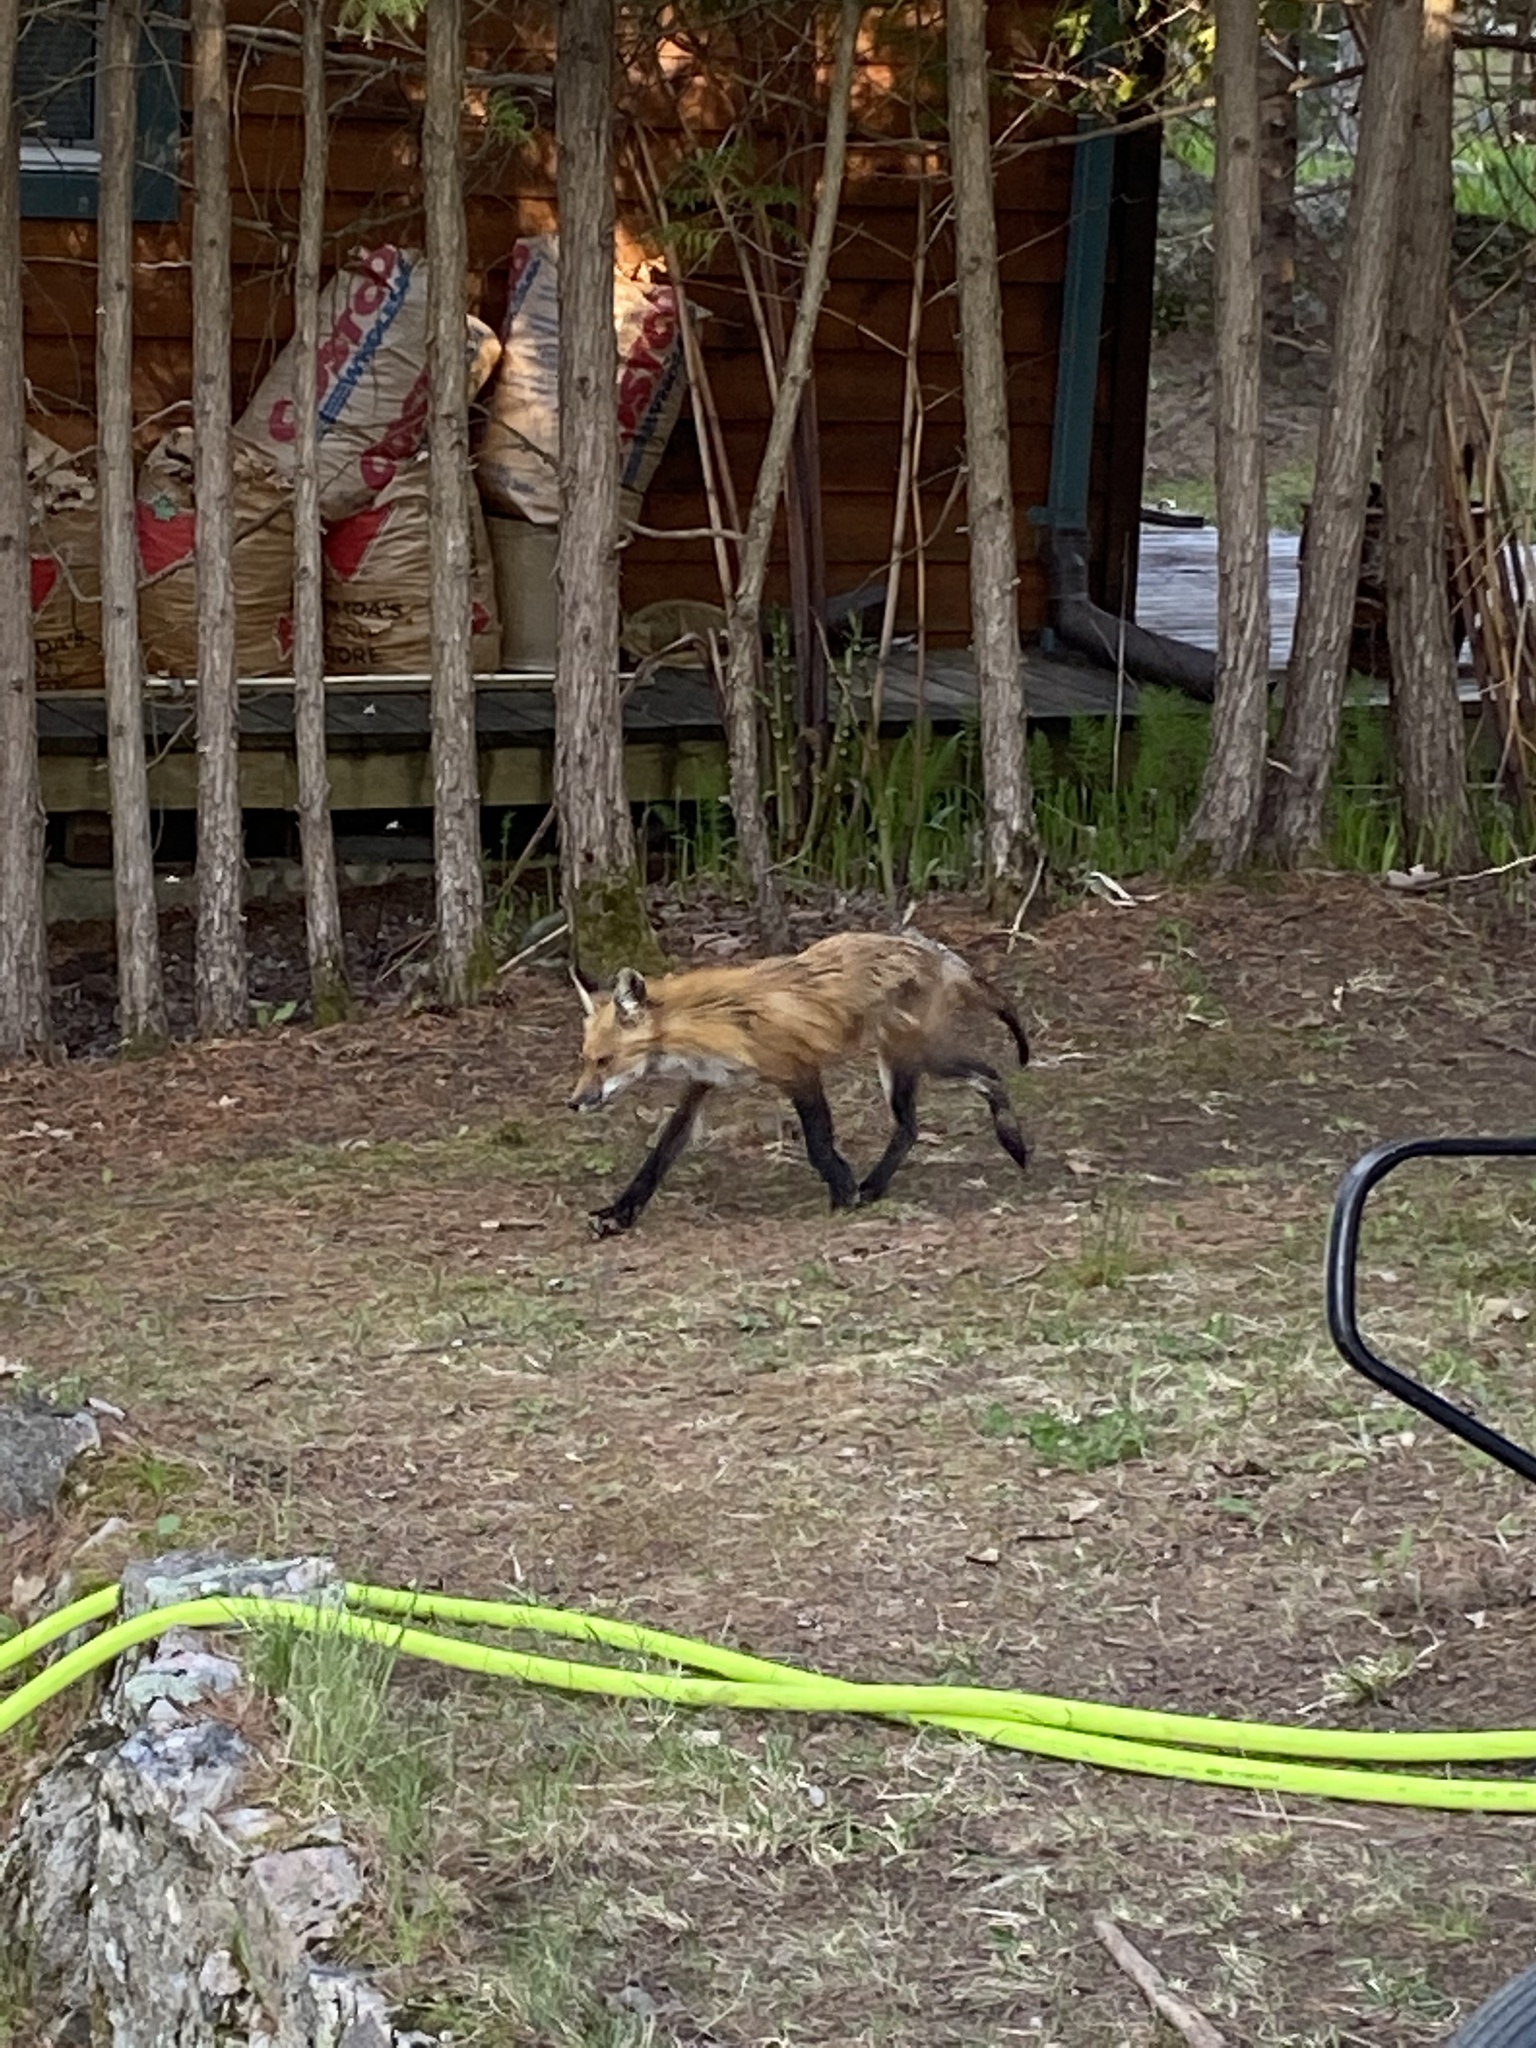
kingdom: Animalia
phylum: Chordata
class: Mammalia
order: Carnivora
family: Canidae
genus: Vulpes
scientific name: Vulpes vulpes
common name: Red fox
